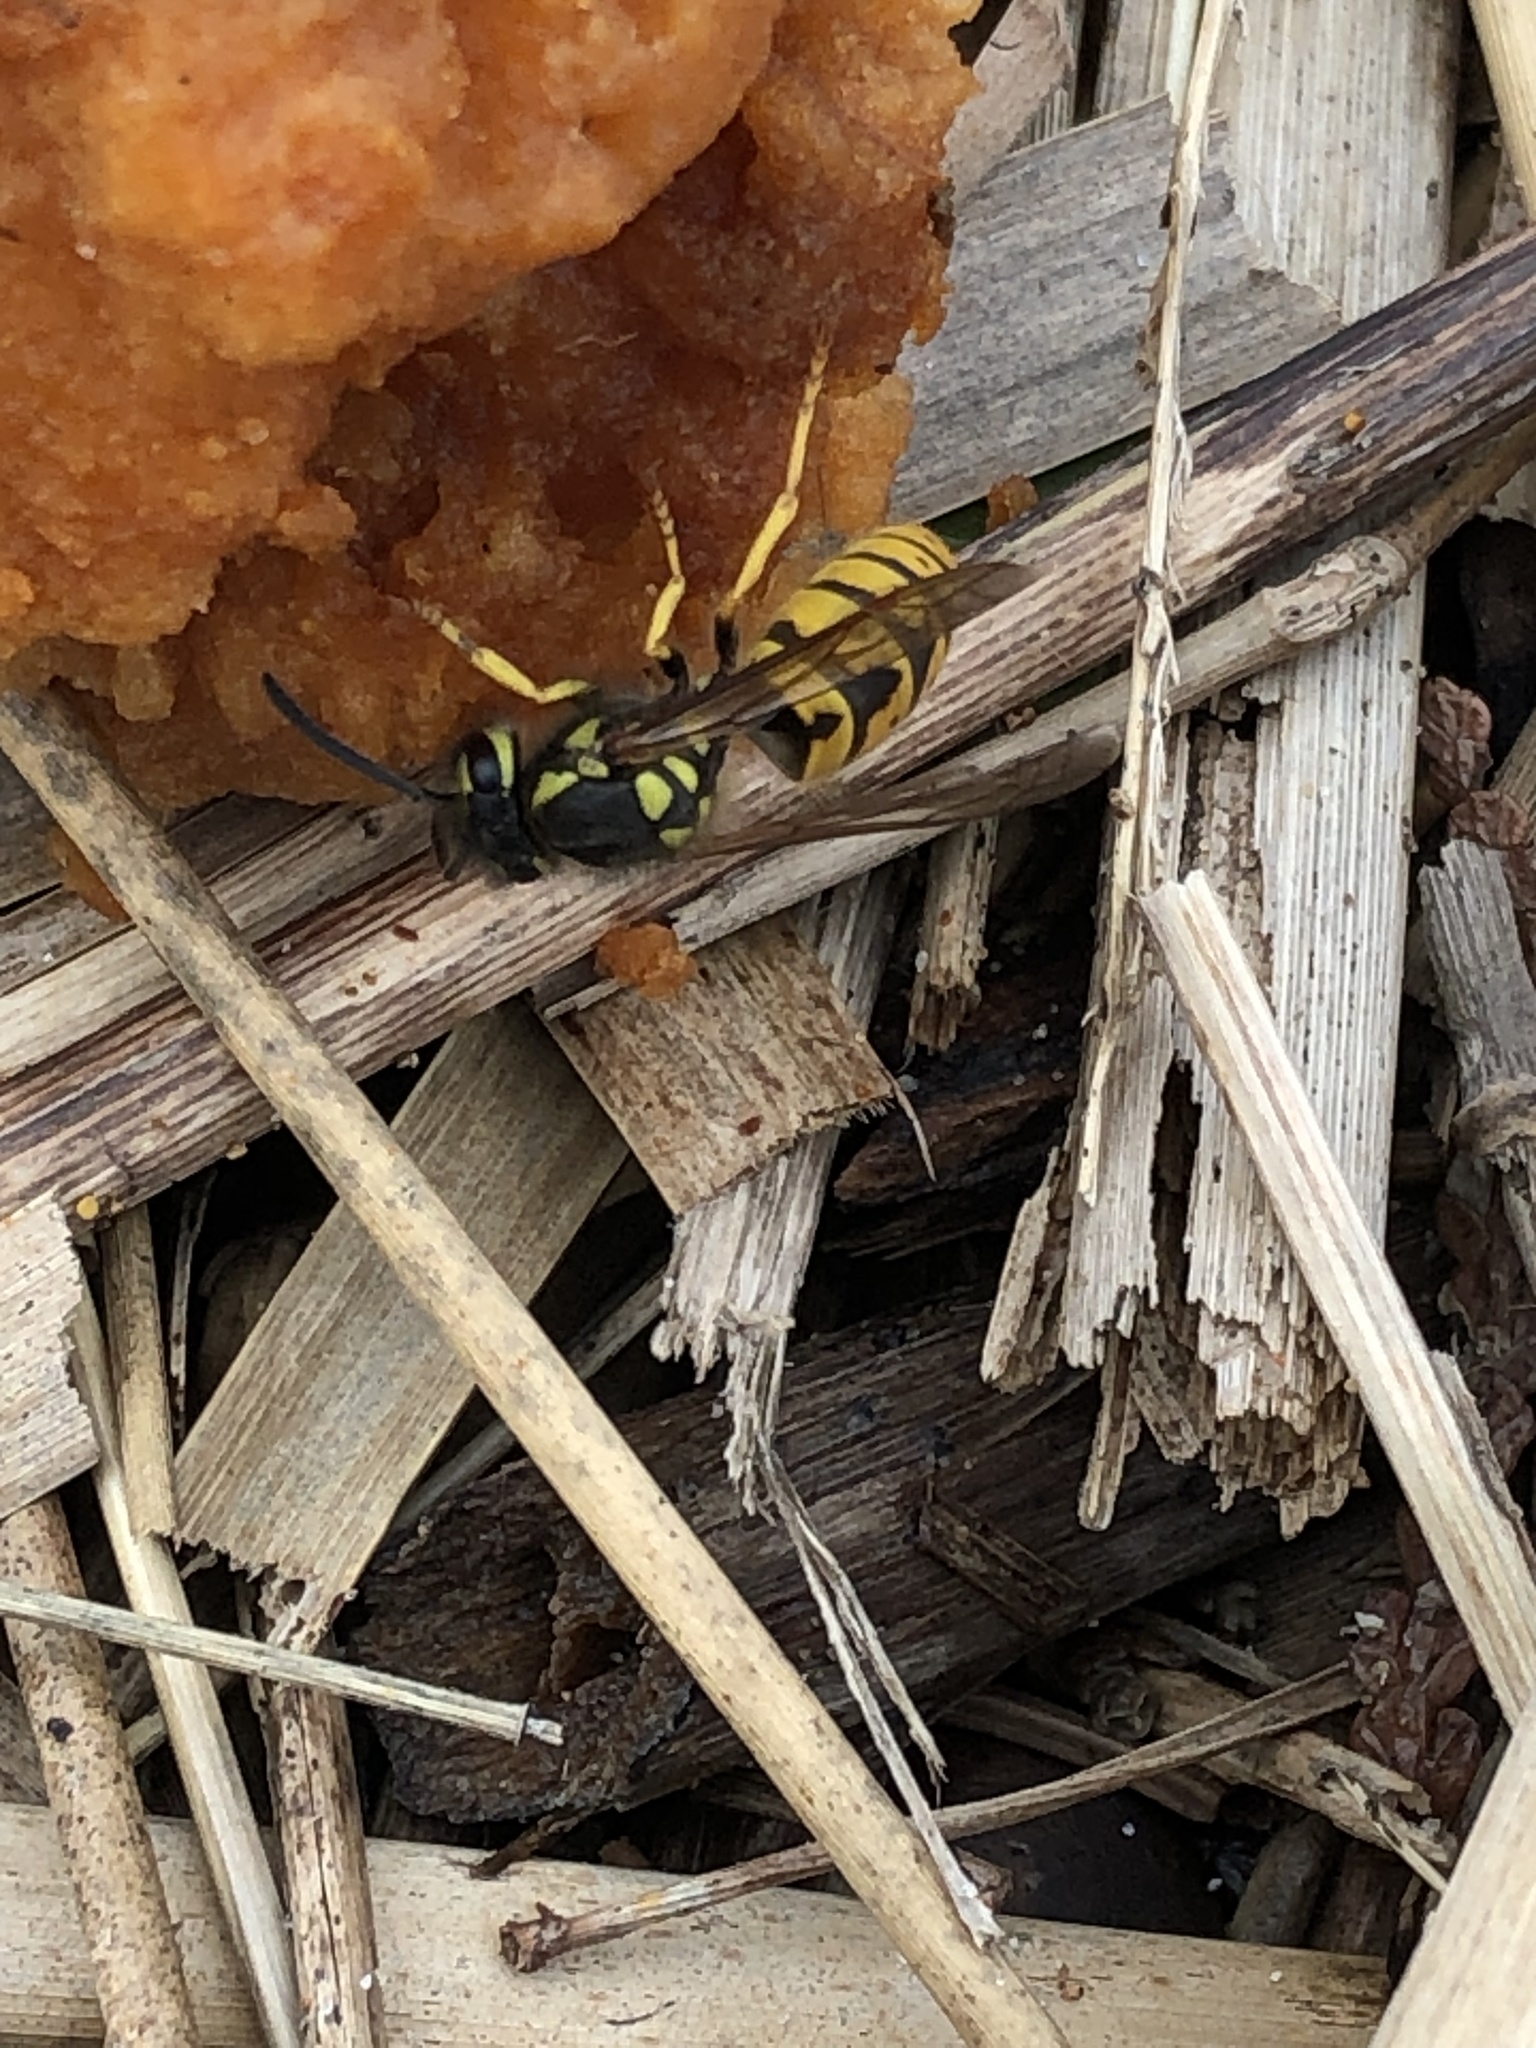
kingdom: Animalia
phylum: Arthropoda
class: Insecta
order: Hymenoptera
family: Vespidae
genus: Vespula
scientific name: Vespula germanica
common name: German wasp
